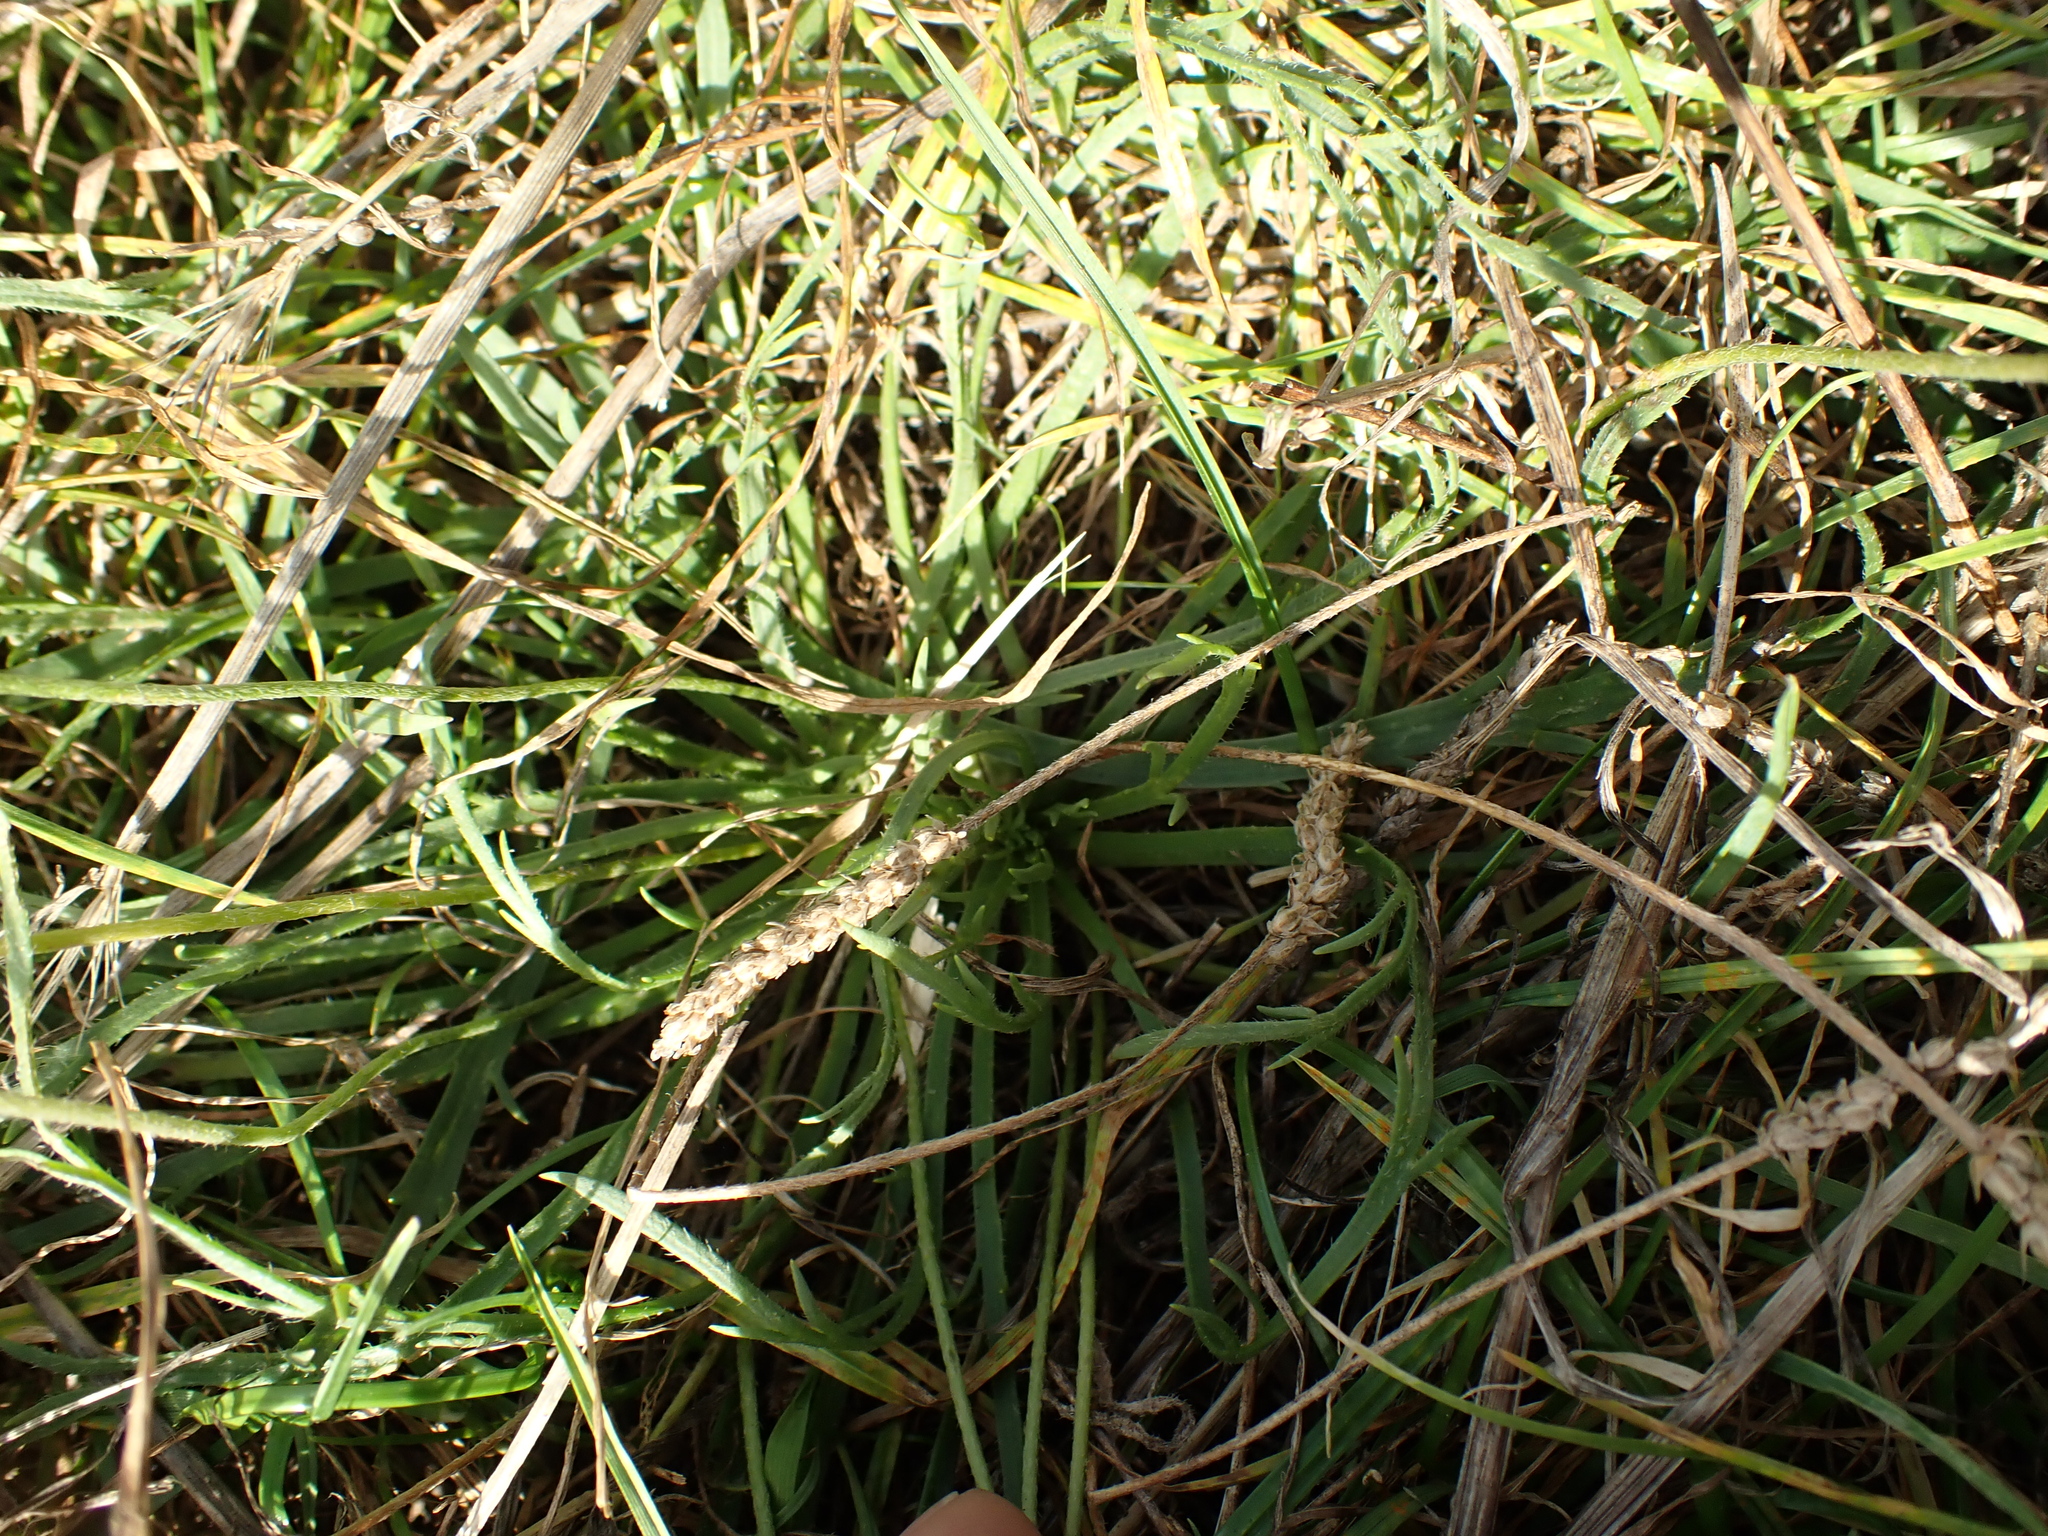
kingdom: Plantae
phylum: Tracheophyta
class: Magnoliopsida
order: Lamiales
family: Plantaginaceae
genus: Plantago
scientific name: Plantago coronopus
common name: Buck's-horn plantain
